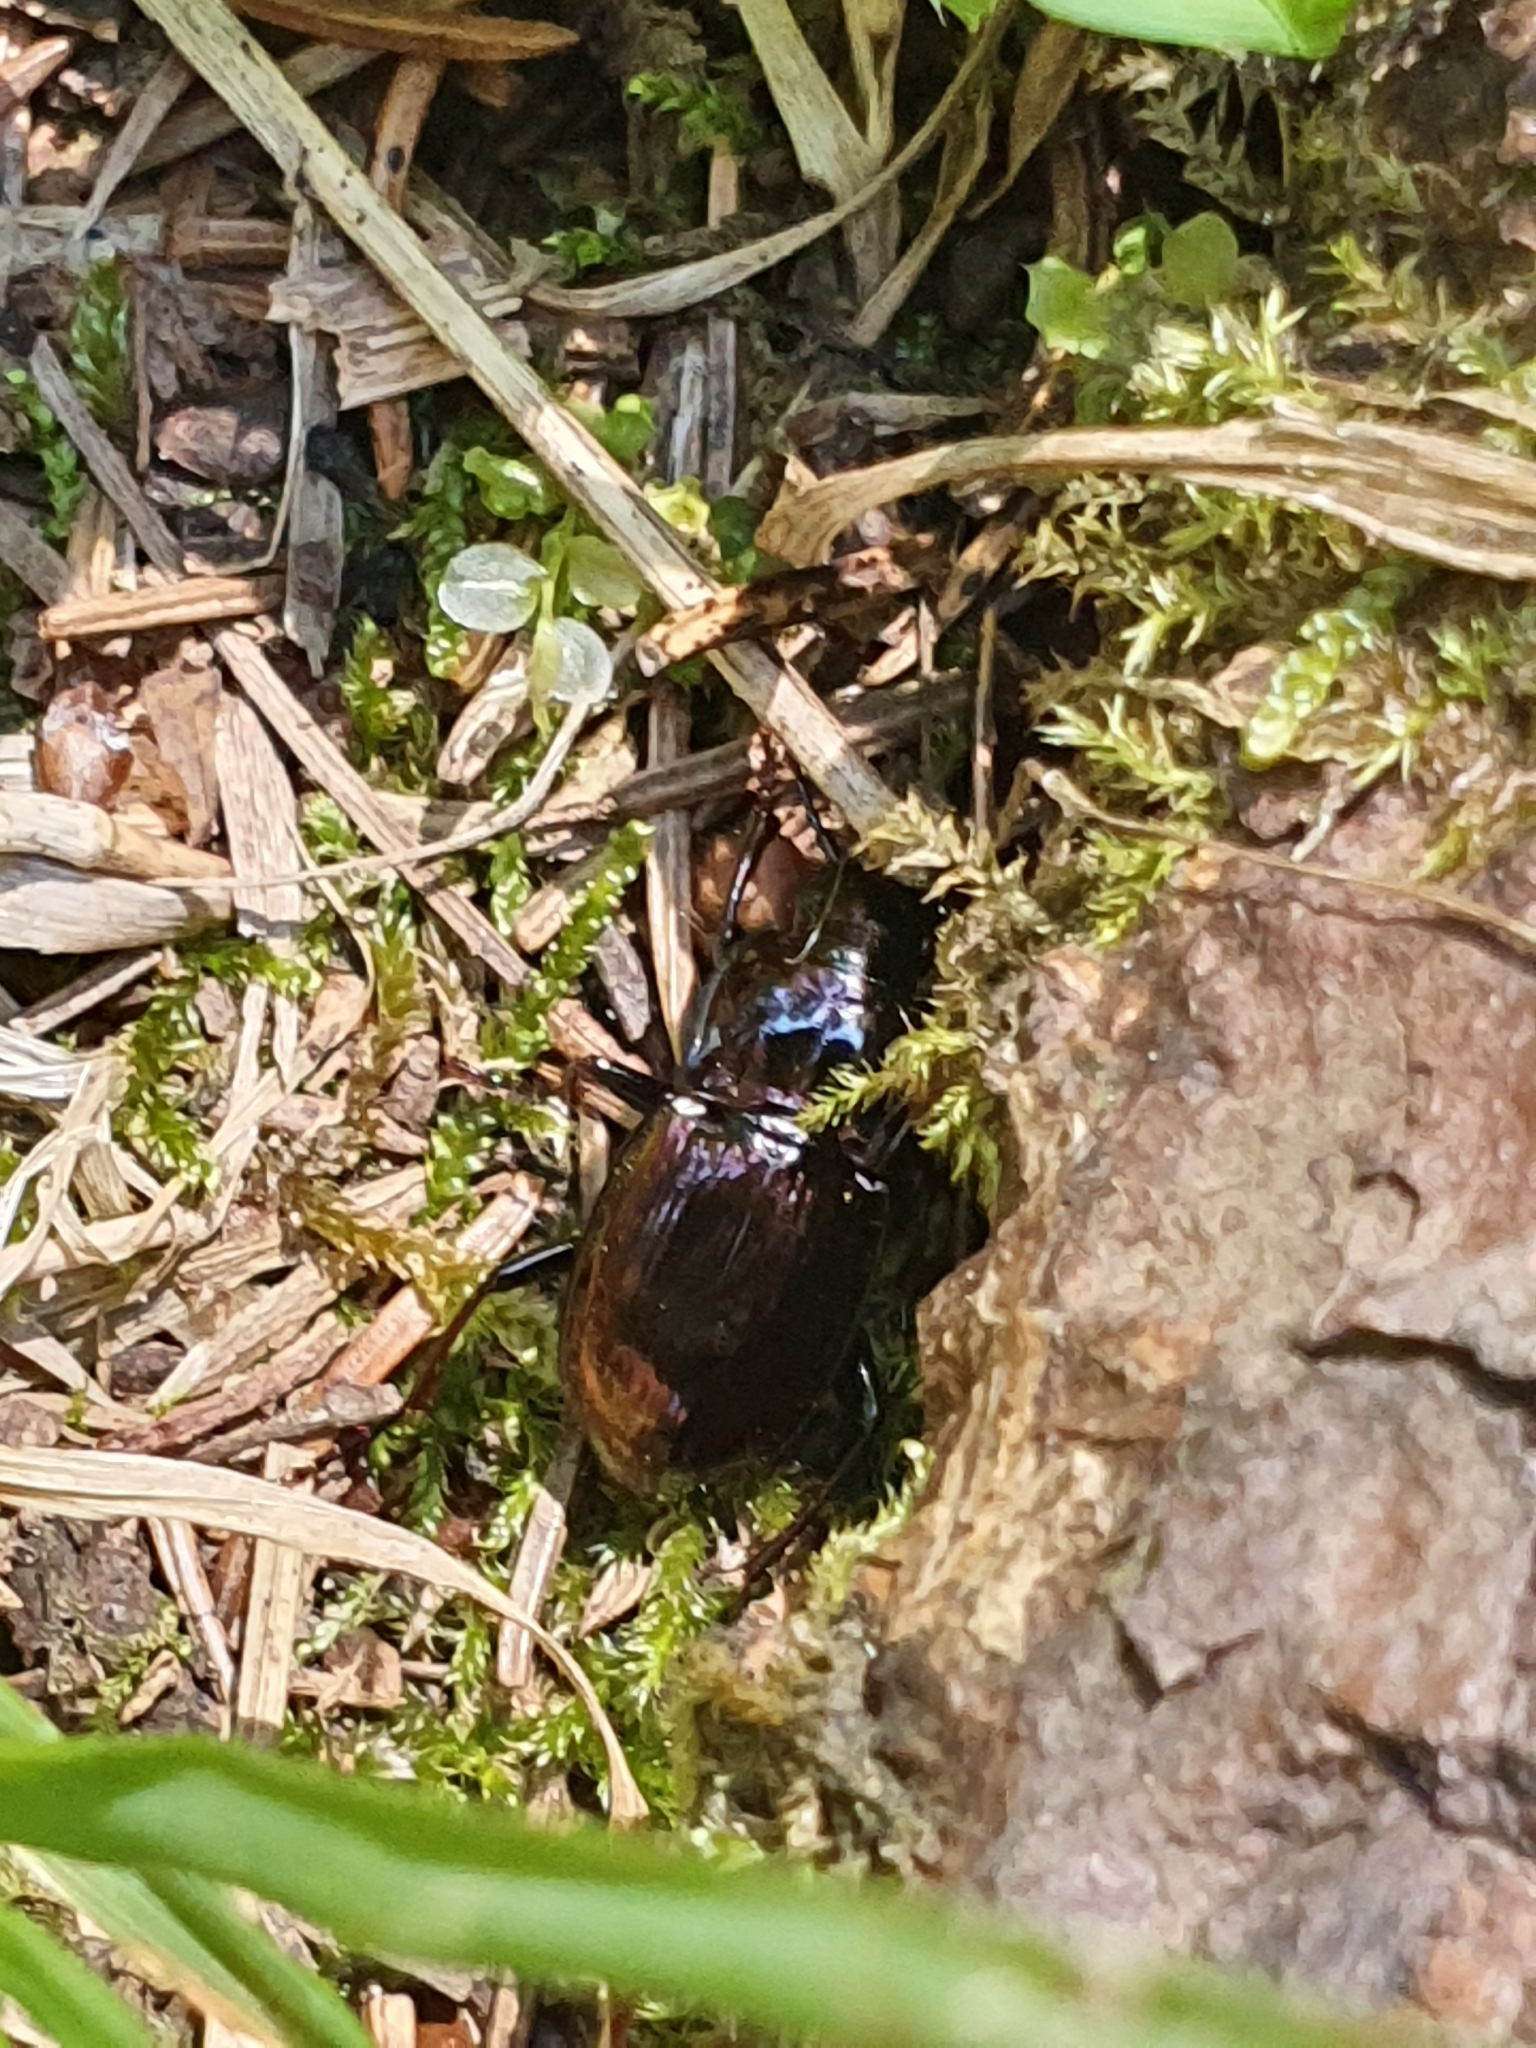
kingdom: Animalia
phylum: Arthropoda
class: Insecta
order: Coleoptera
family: Carabidae
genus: Pterostichus
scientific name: Pterostichus burmeisteri
